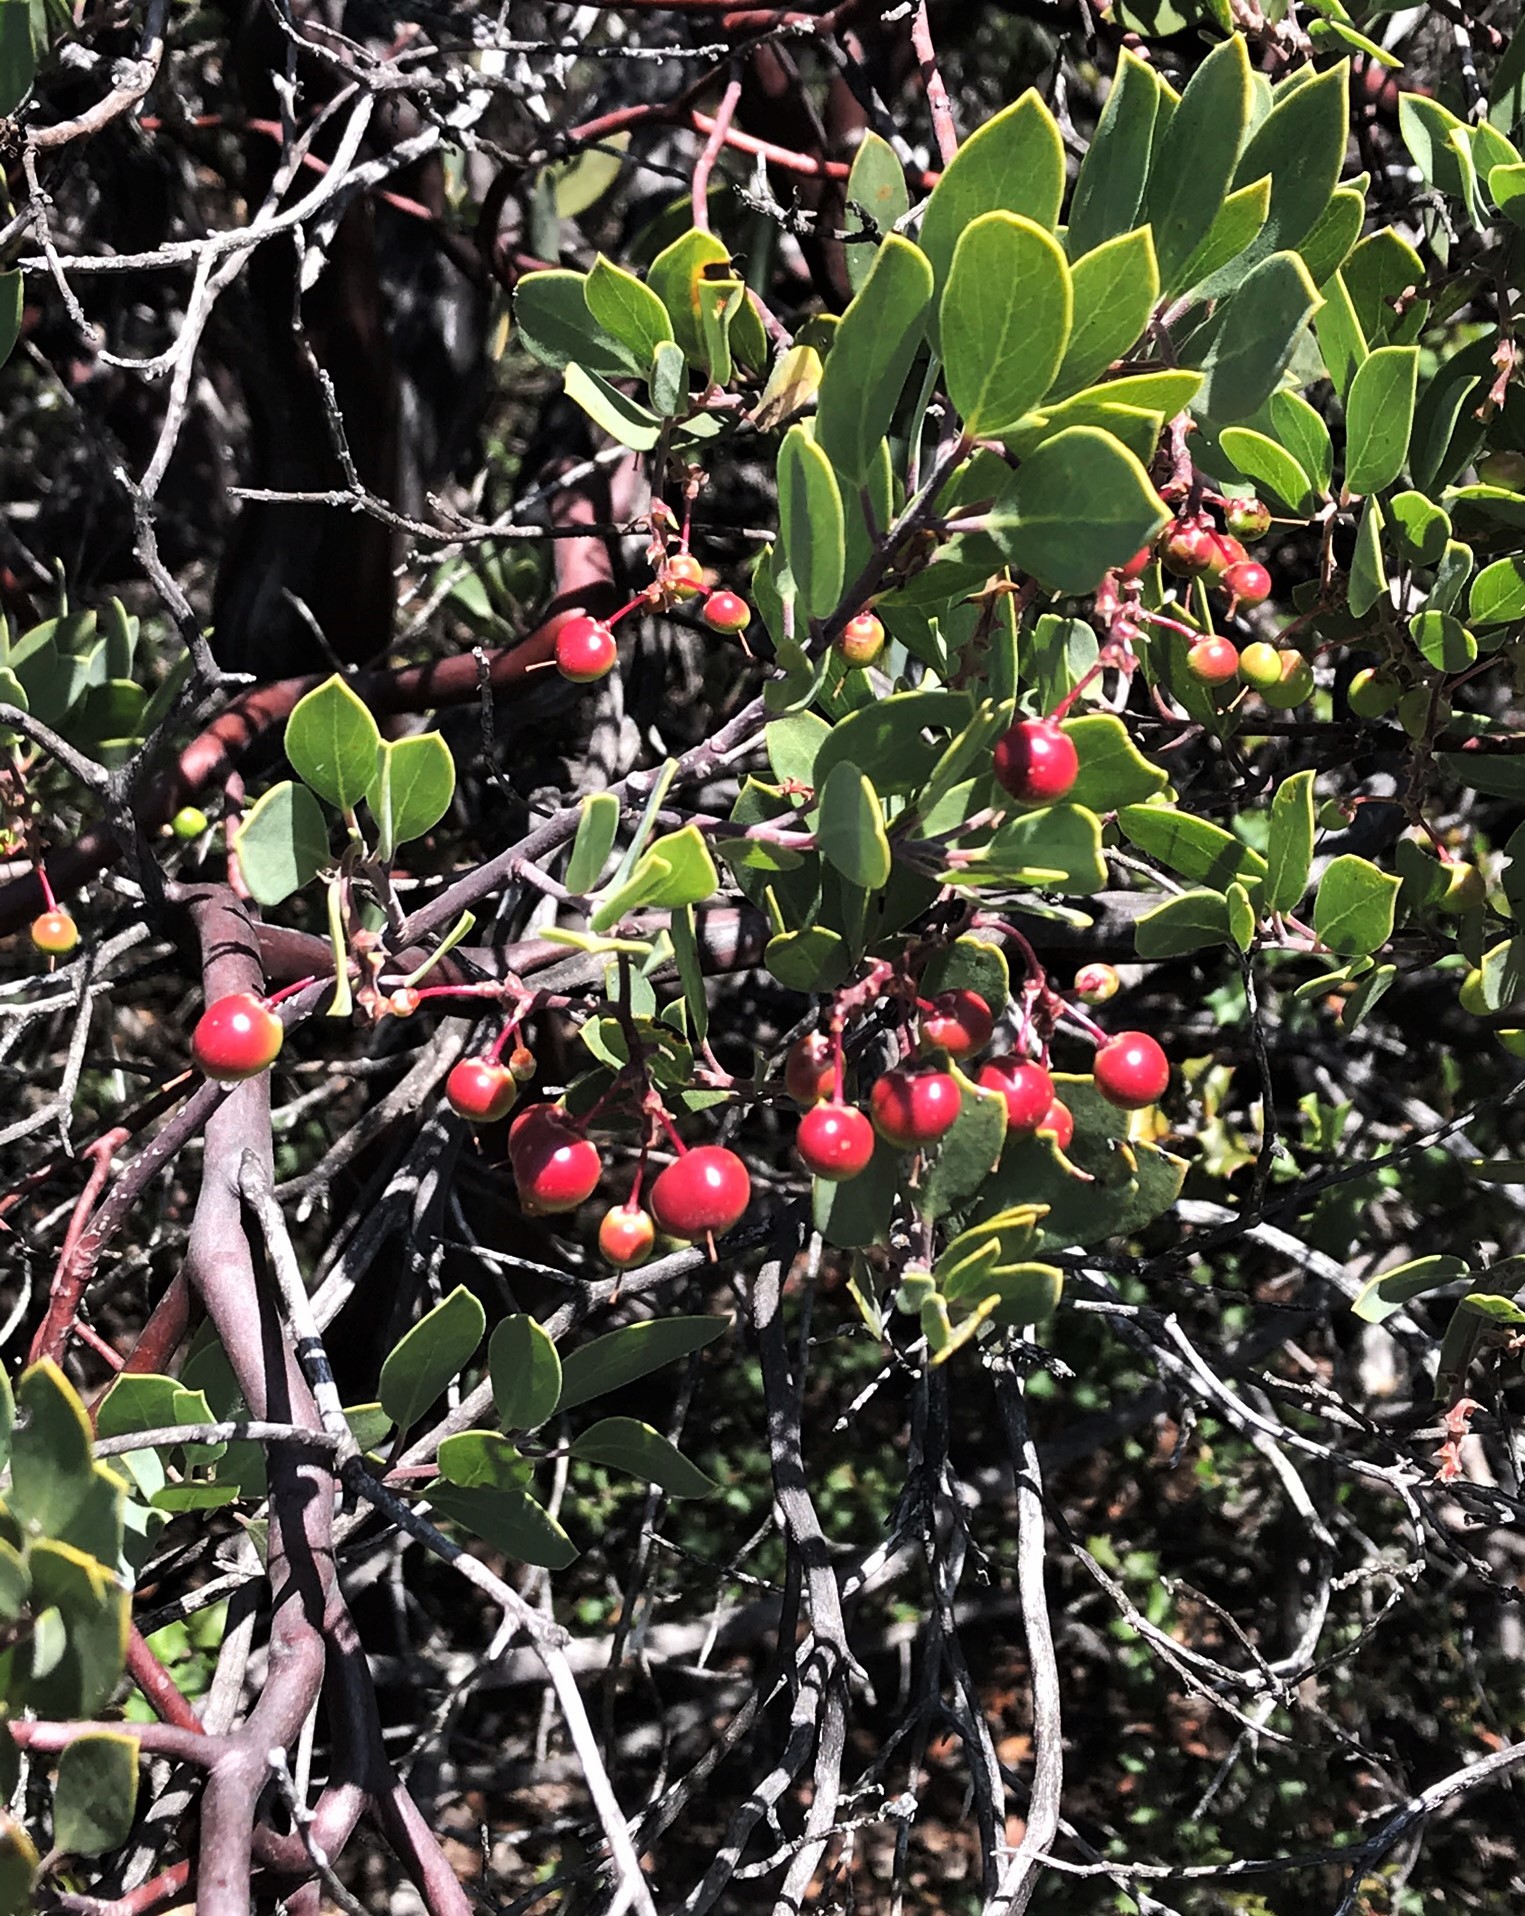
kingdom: Plantae
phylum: Tracheophyta
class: Magnoliopsida
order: Ericales
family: Ericaceae
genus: Arctostaphylos
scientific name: Arctostaphylos bakeri
